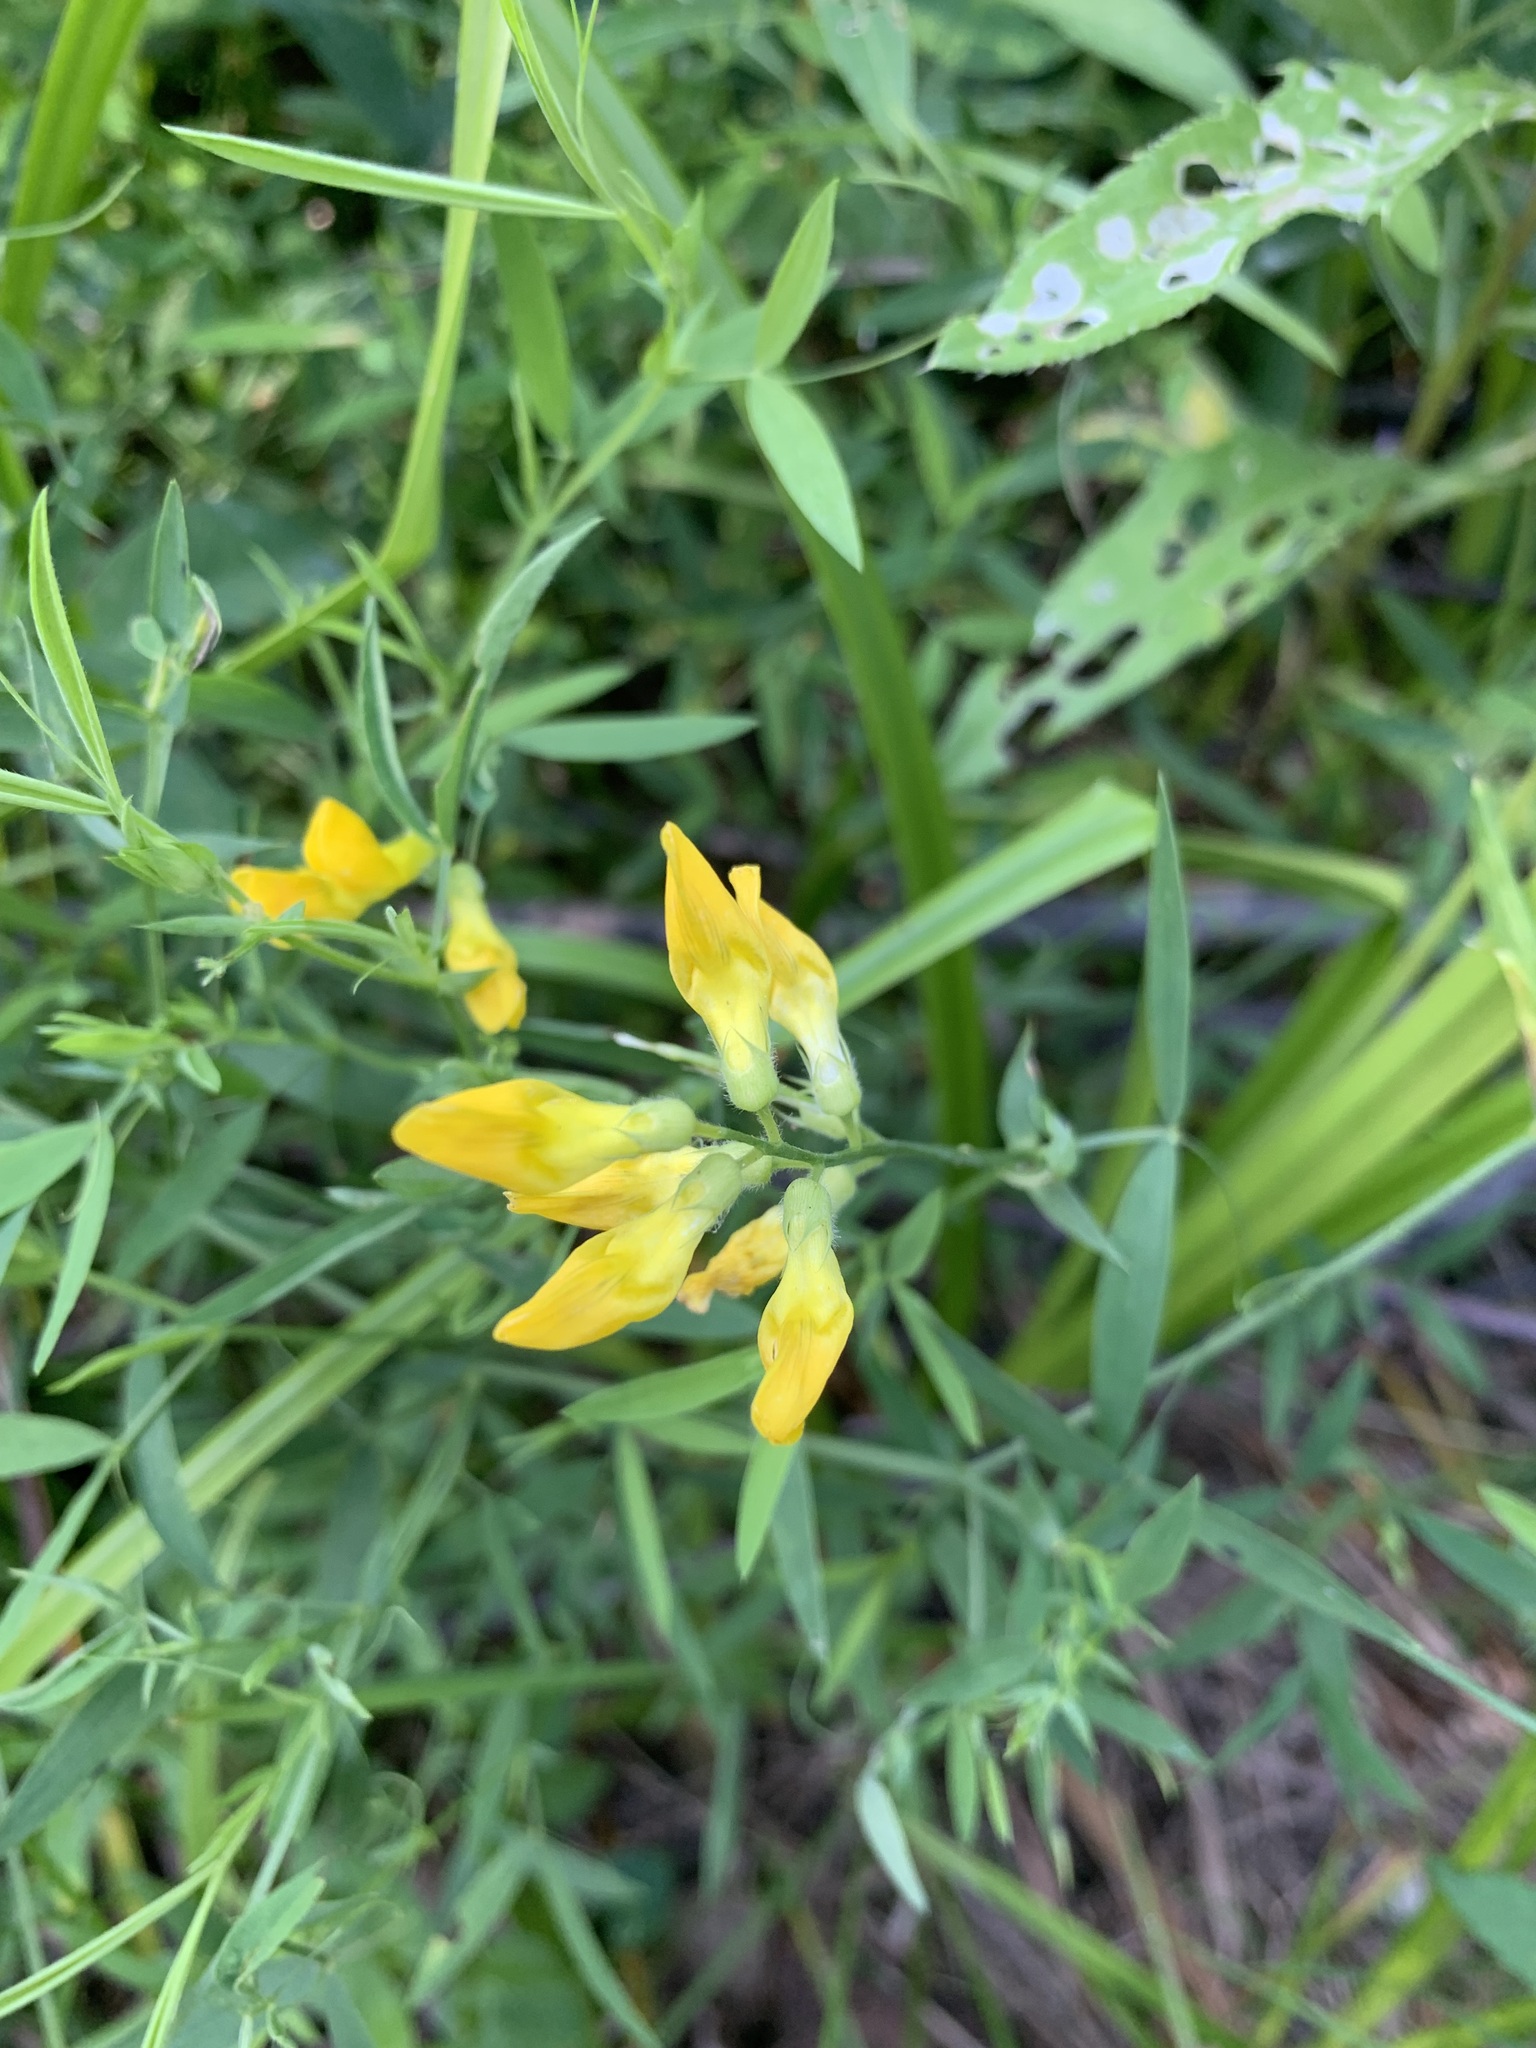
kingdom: Plantae
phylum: Tracheophyta
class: Magnoliopsida
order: Fabales
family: Fabaceae
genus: Lathyrus
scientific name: Lathyrus pratensis
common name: Meadow vetchling
